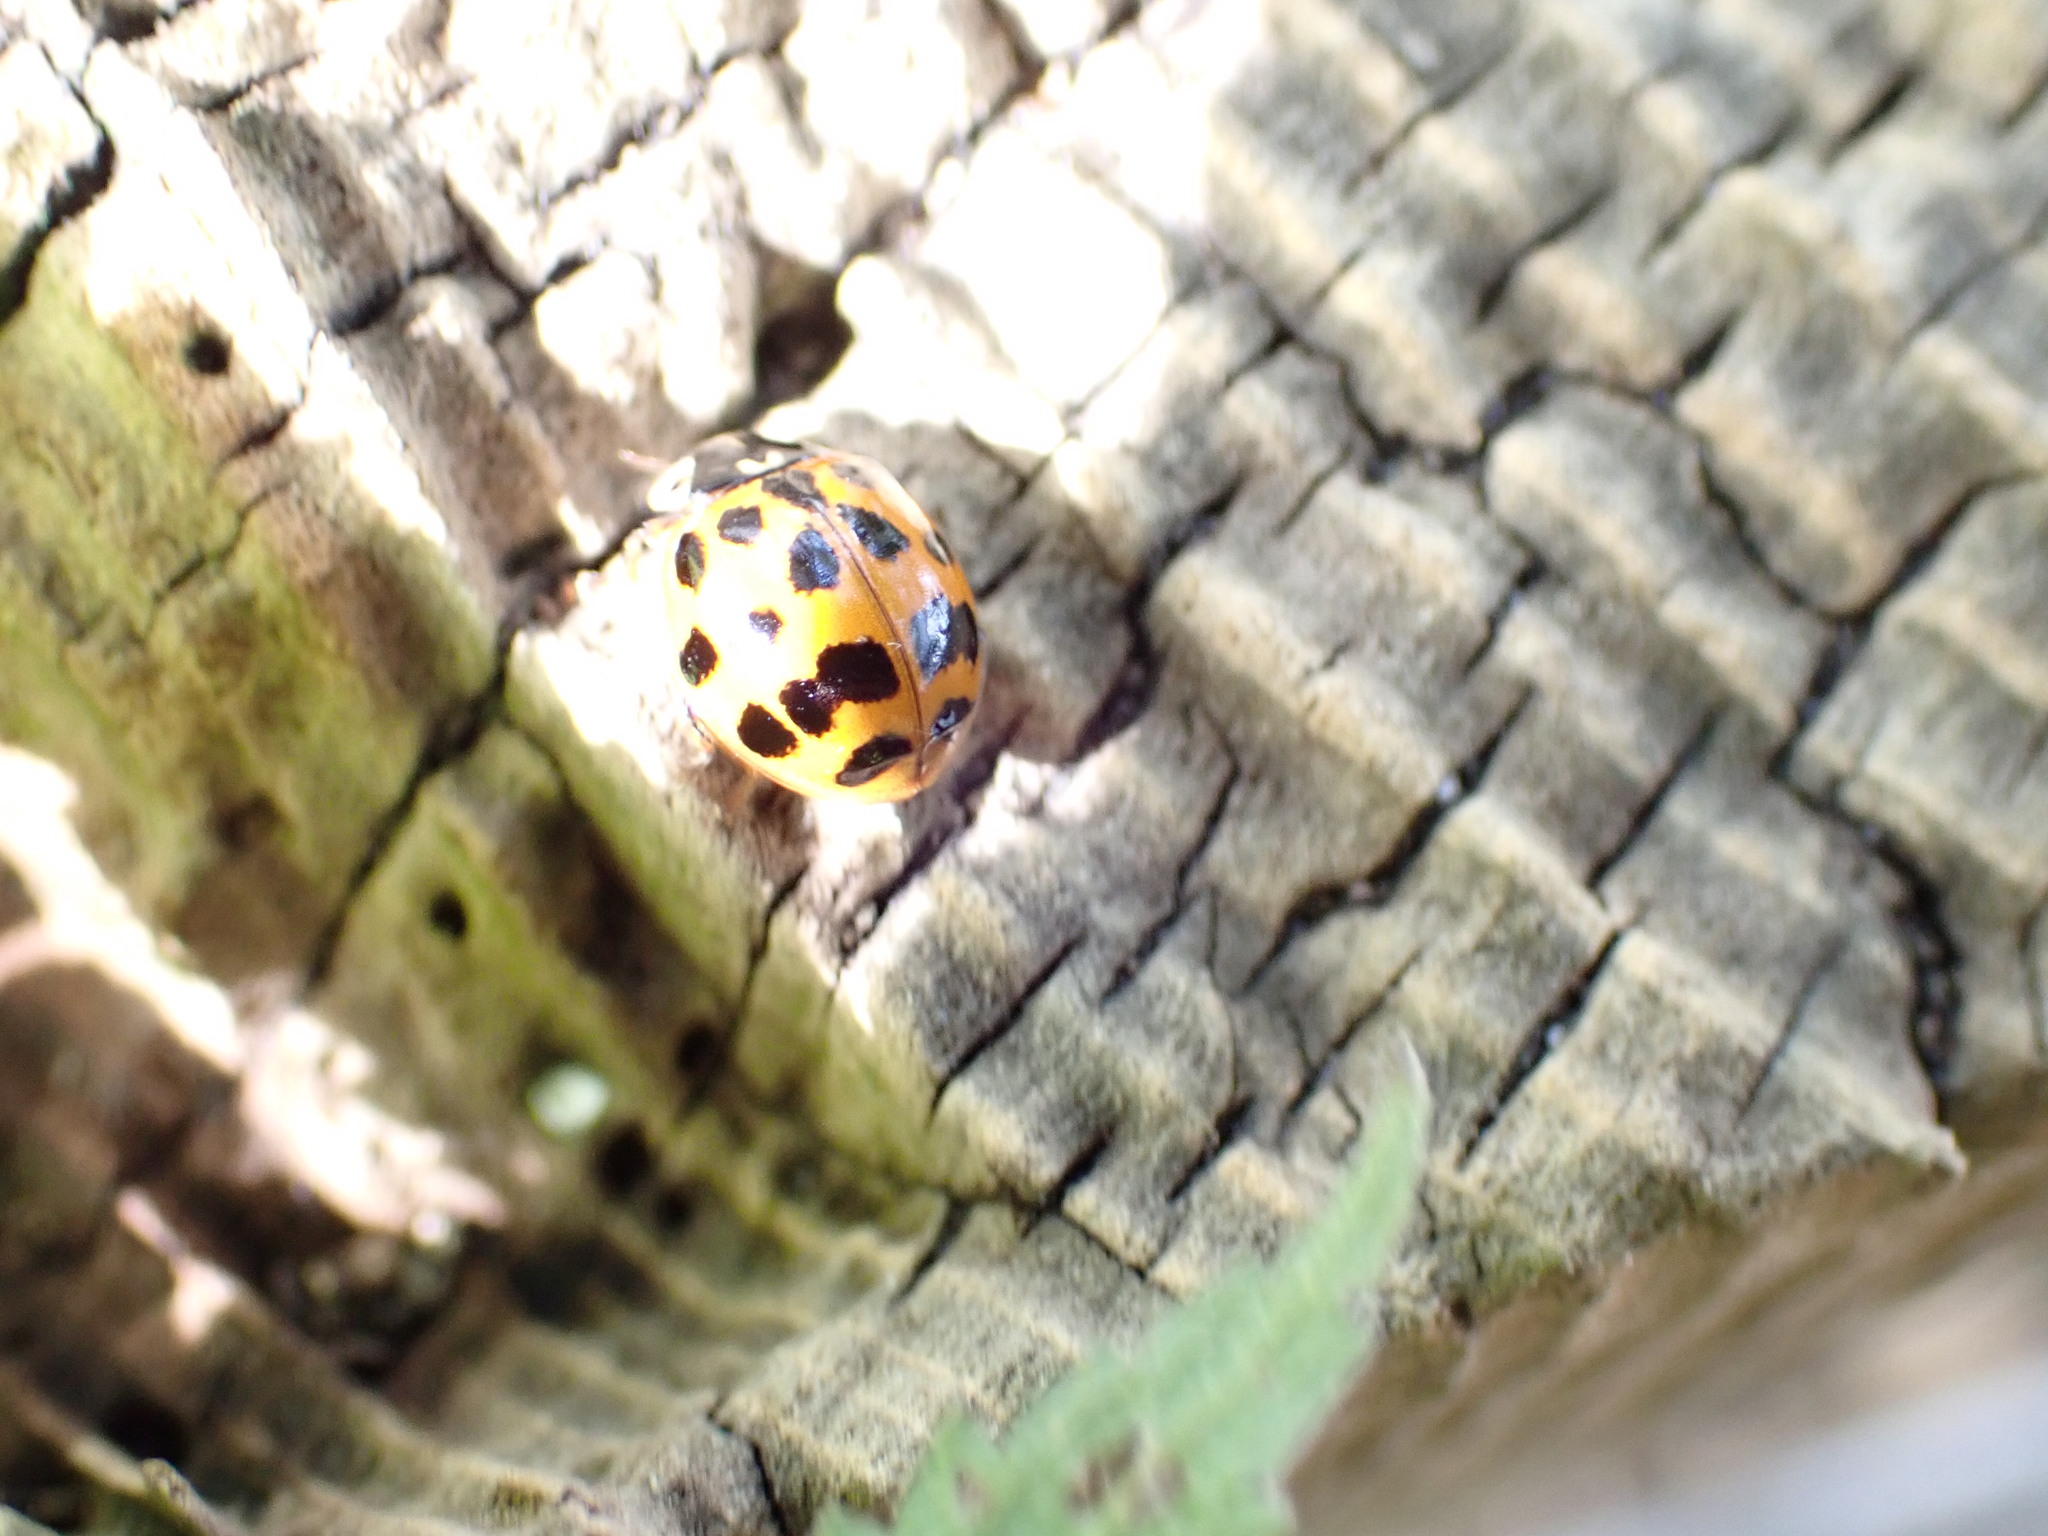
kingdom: Animalia
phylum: Arthropoda
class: Insecta
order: Coleoptera
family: Coccinellidae
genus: Harmonia
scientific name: Harmonia axyridis
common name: Harlequin ladybird
